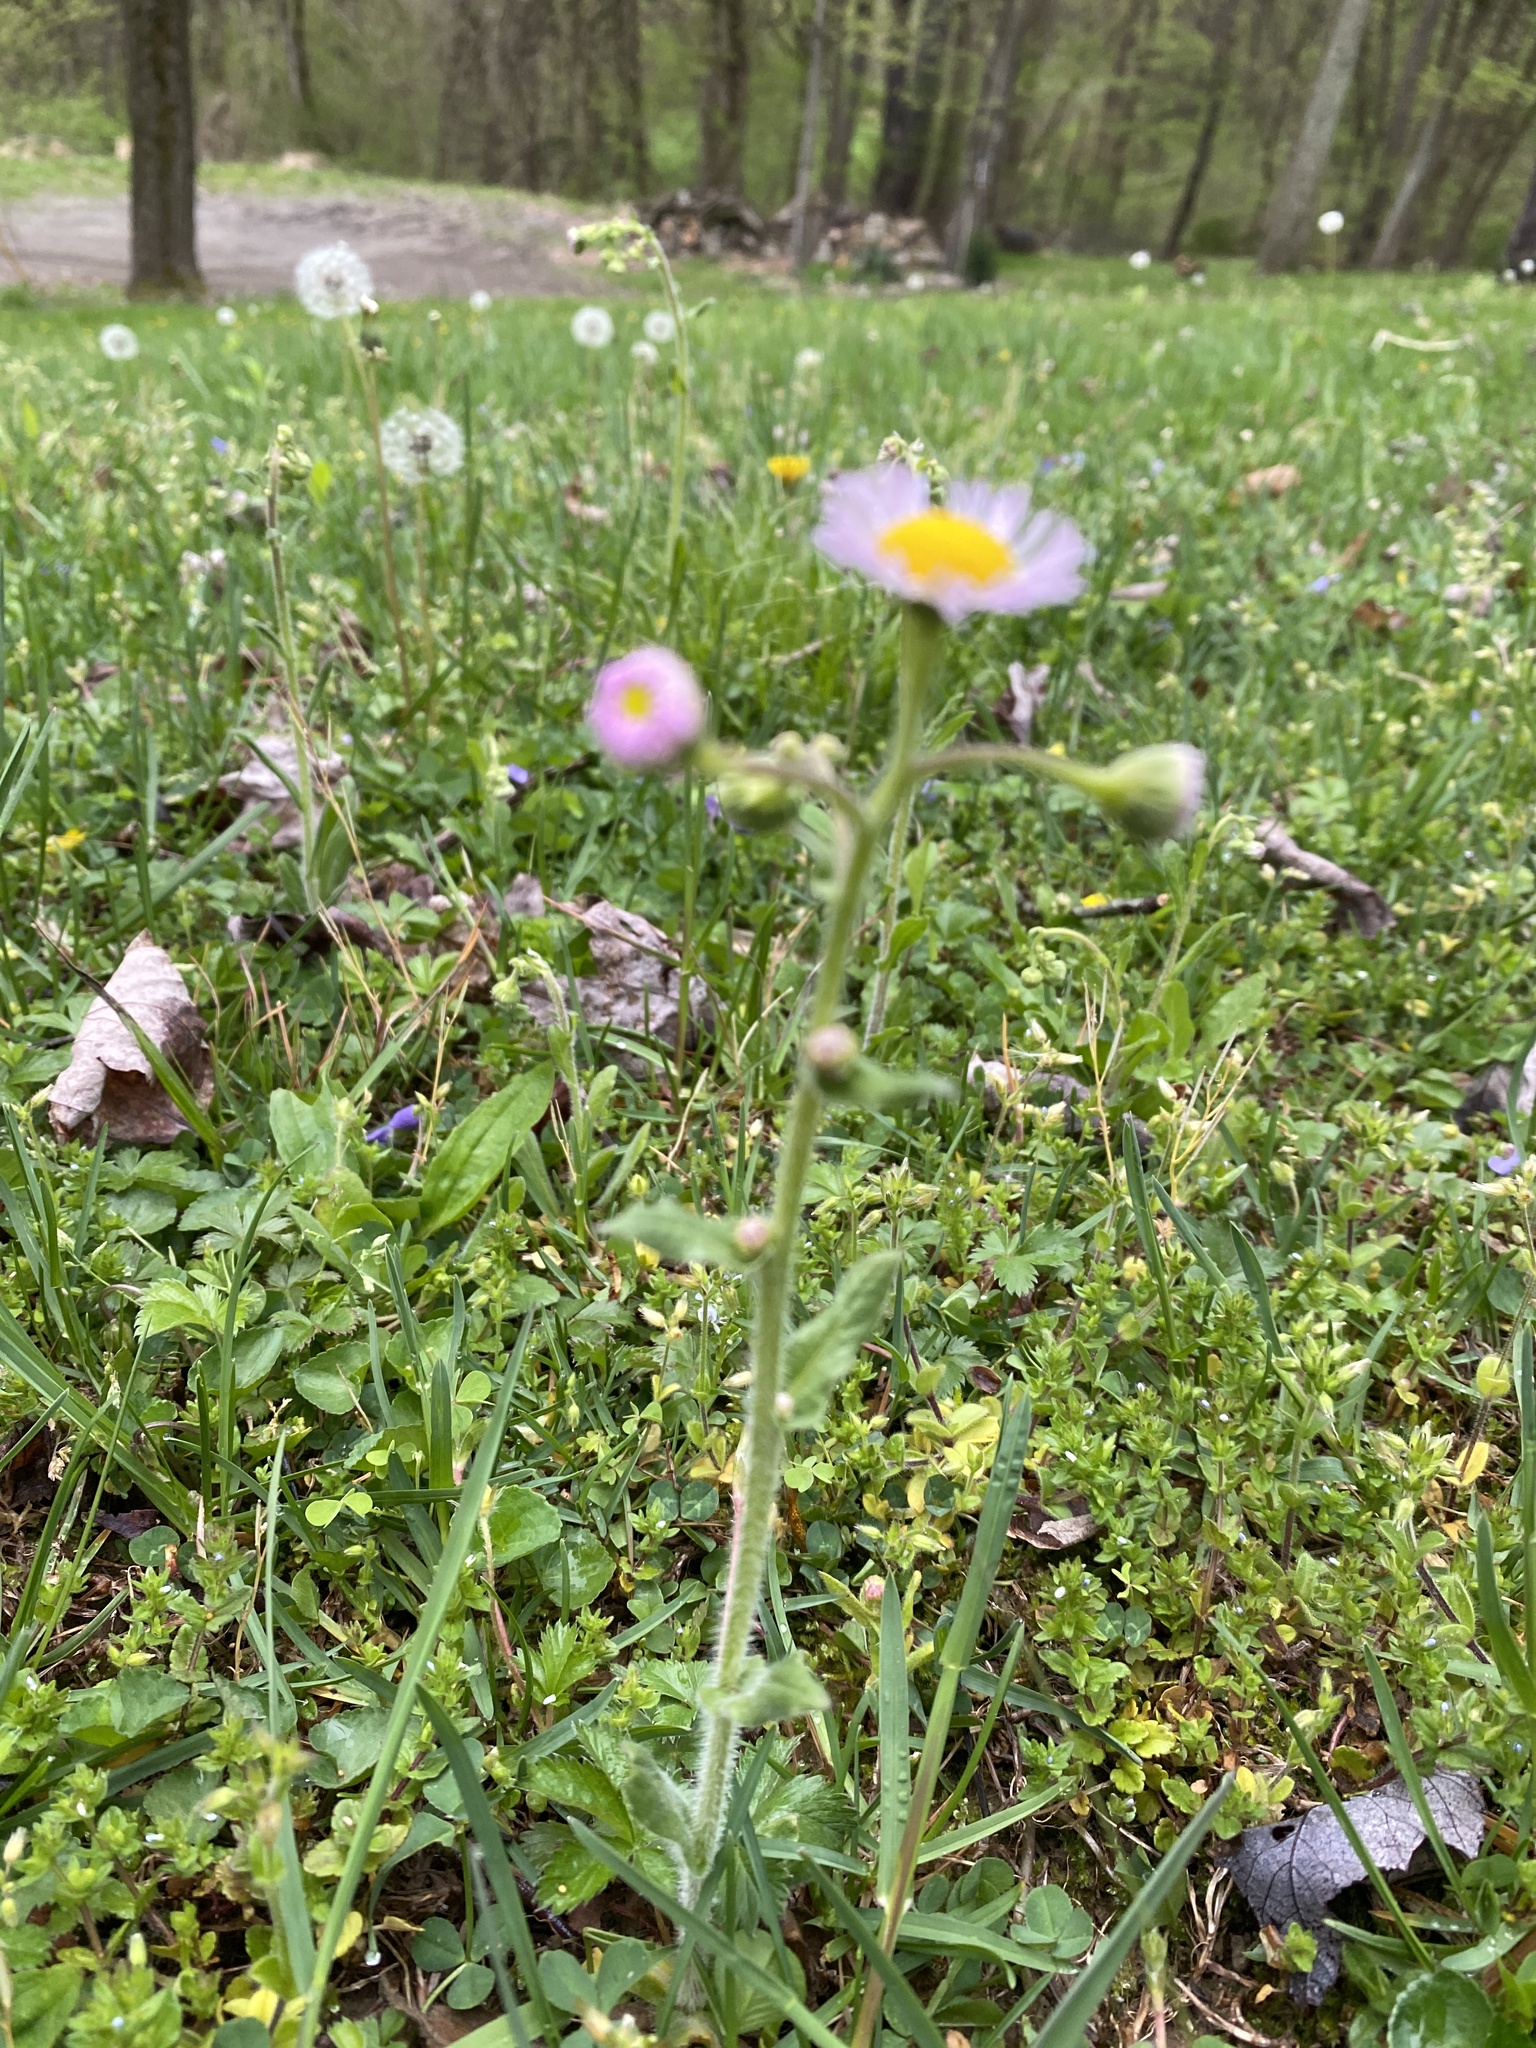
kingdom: Plantae
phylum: Tracheophyta
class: Magnoliopsida
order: Asterales
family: Asteraceae
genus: Erigeron
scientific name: Erigeron philadelphicus
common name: Robin's-plantain
